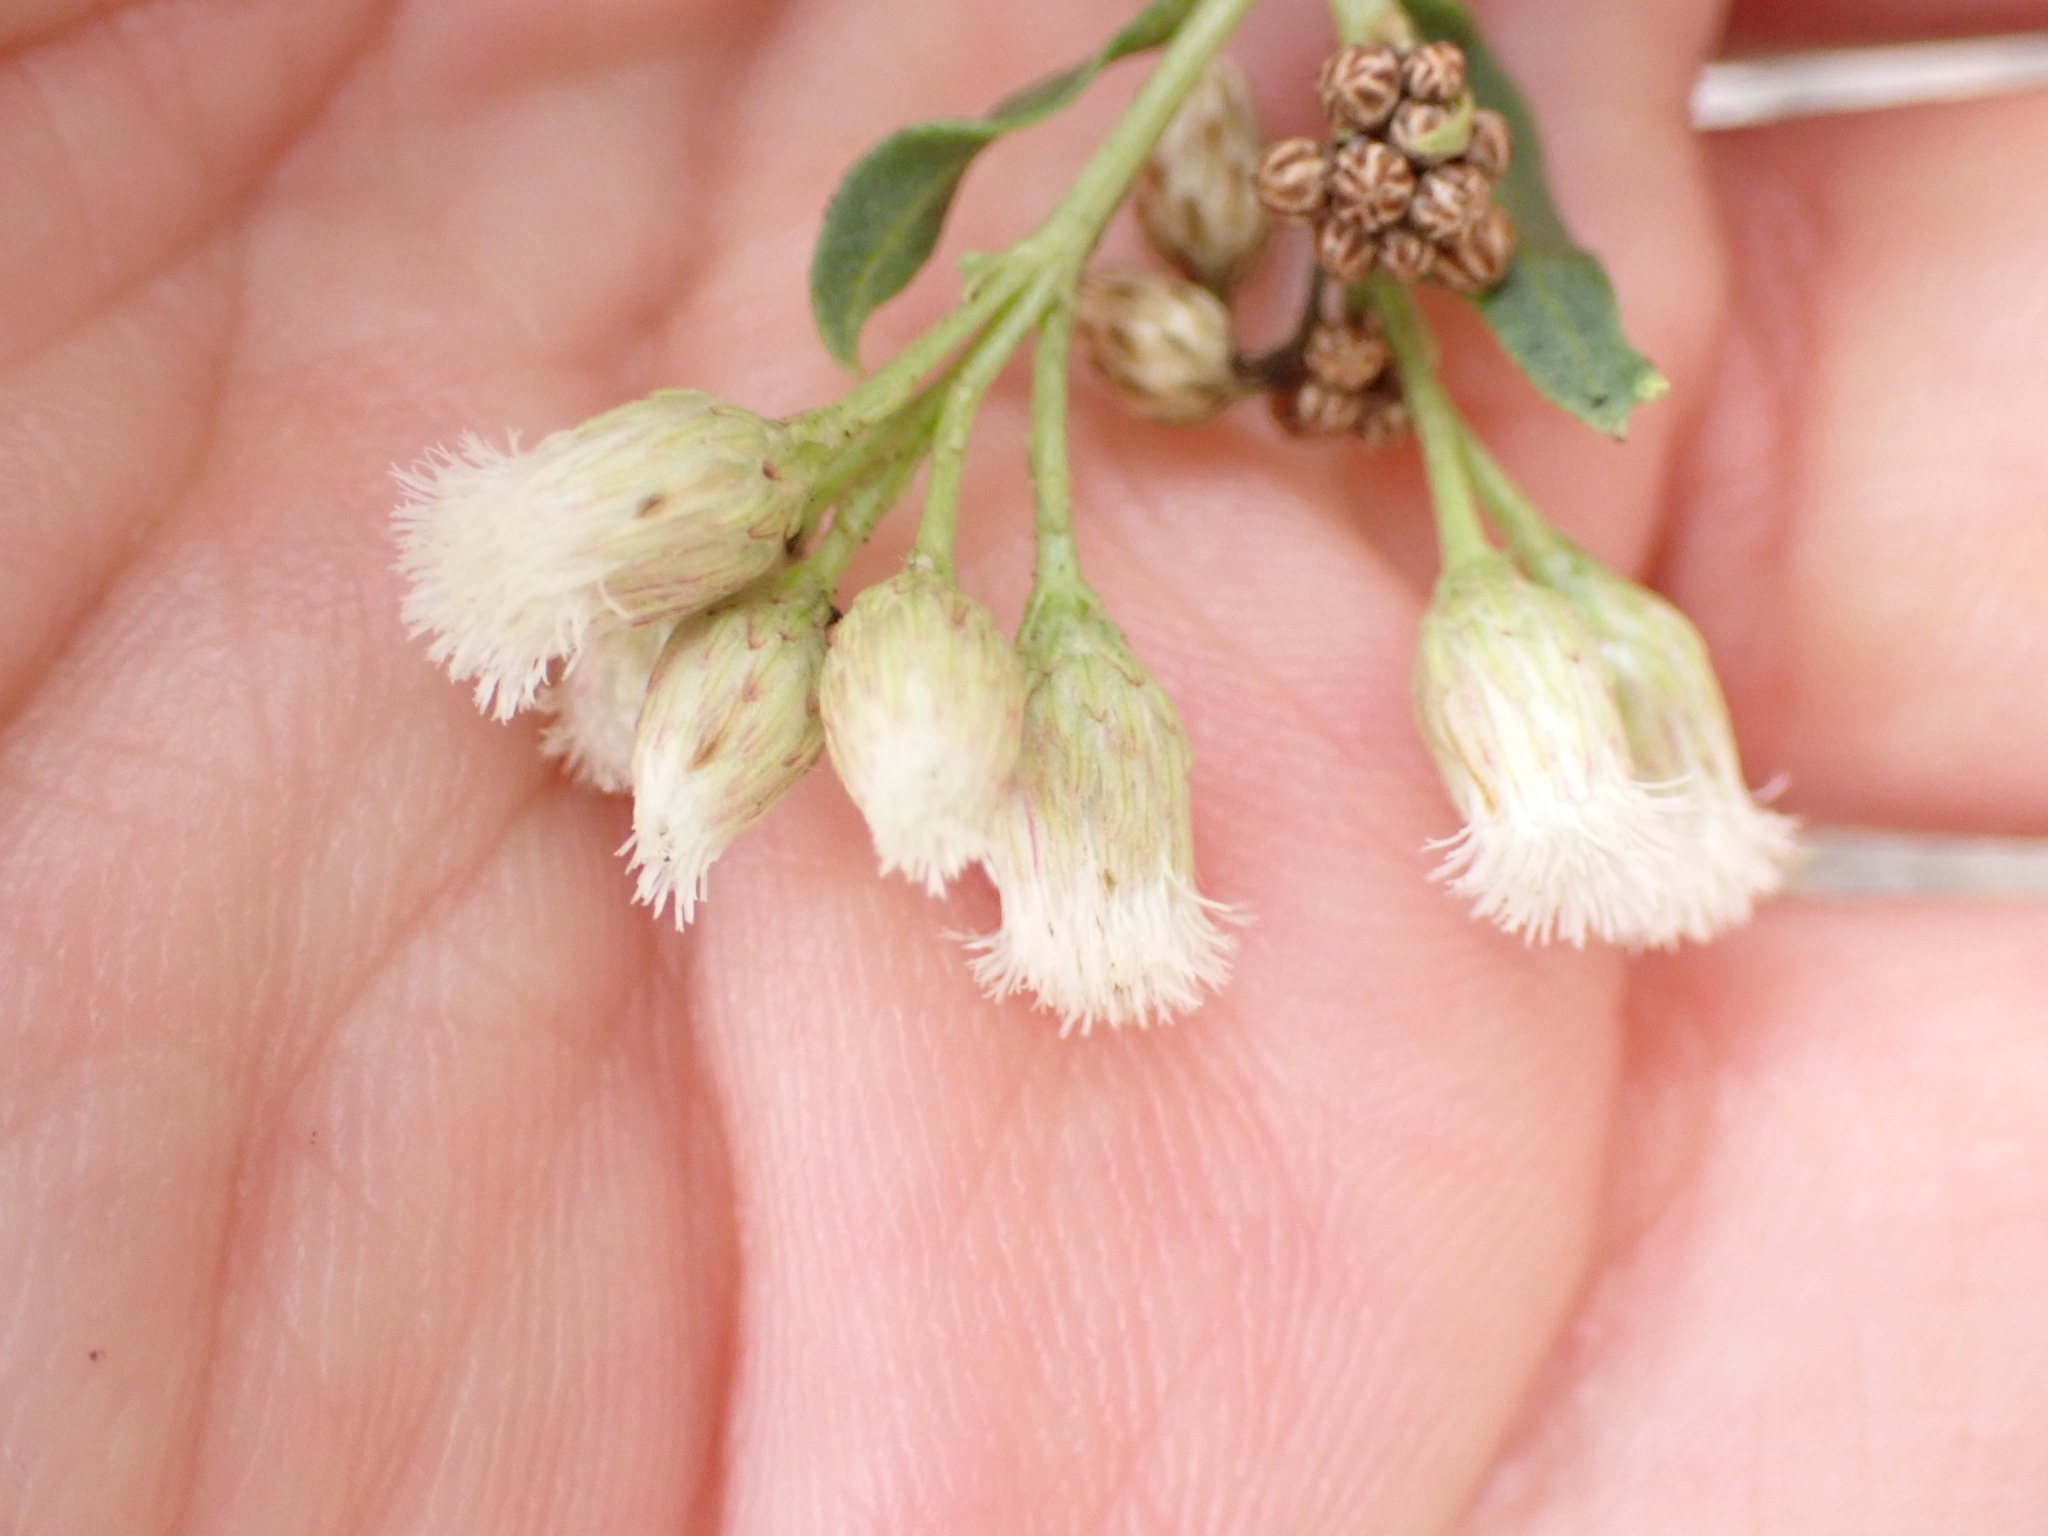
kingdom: Plantae
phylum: Tracheophyta
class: Magnoliopsida
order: Asterales
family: Asteraceae
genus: Baccharis
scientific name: Baccharis salicifolia
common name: Sticky baccharis
